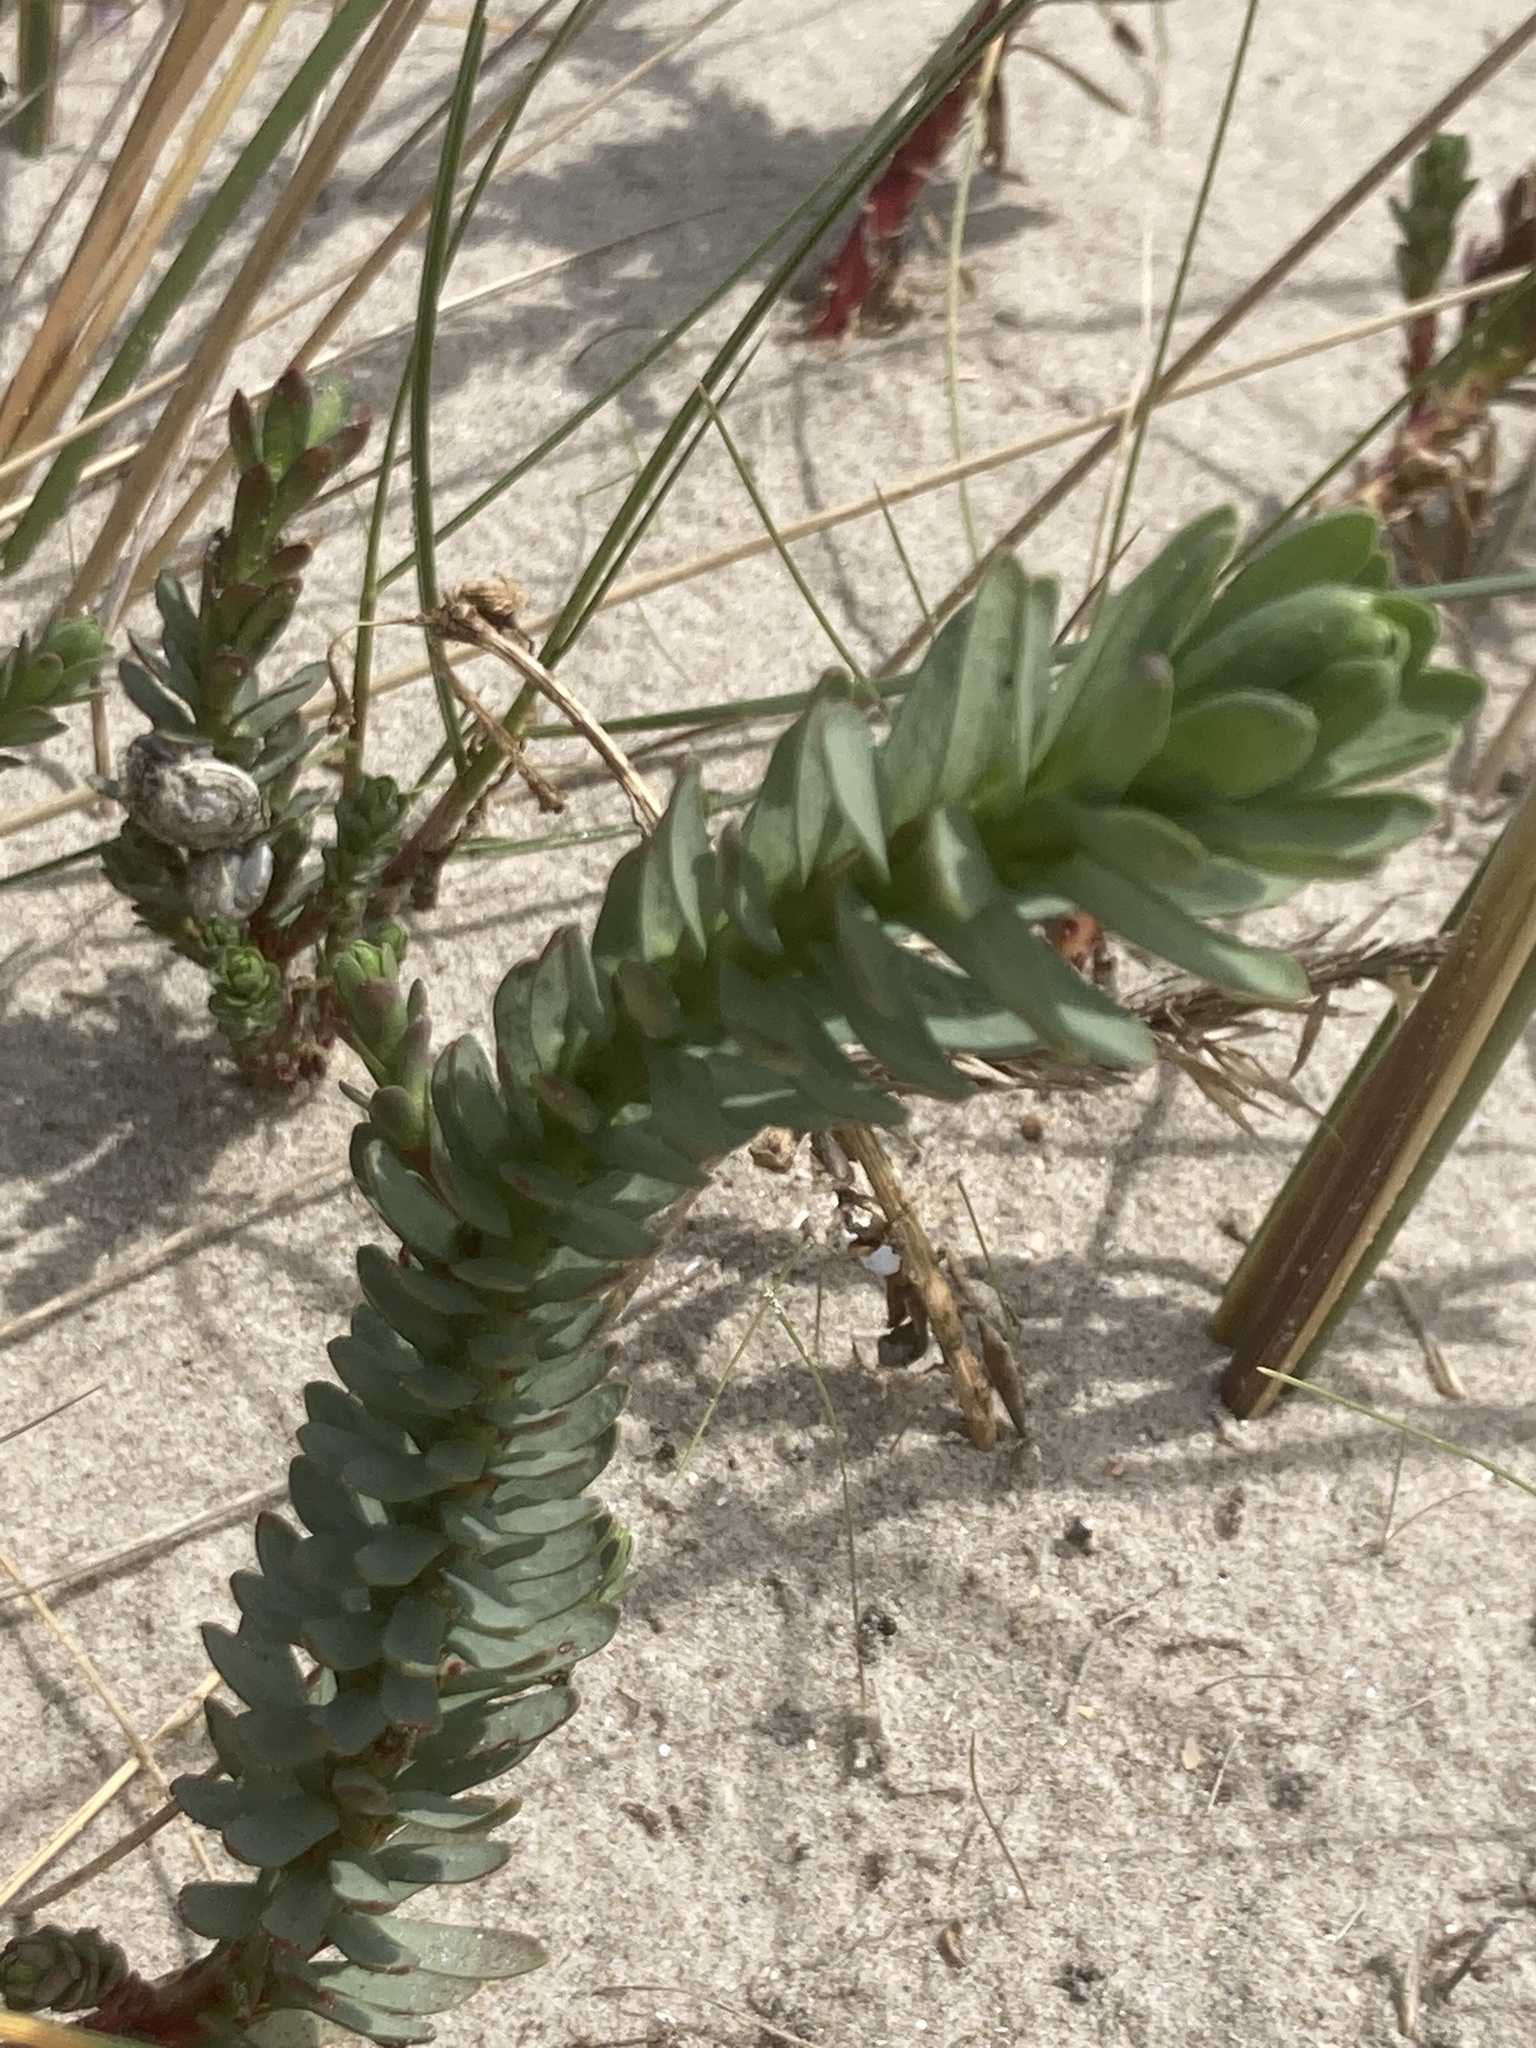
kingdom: Plantae
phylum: Tracheophyta
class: Magnoliopsida
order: Malpighiales
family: Euphorbiaceae
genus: Euphorbia
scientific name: Euphorbia paralias
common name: Sea spurge
